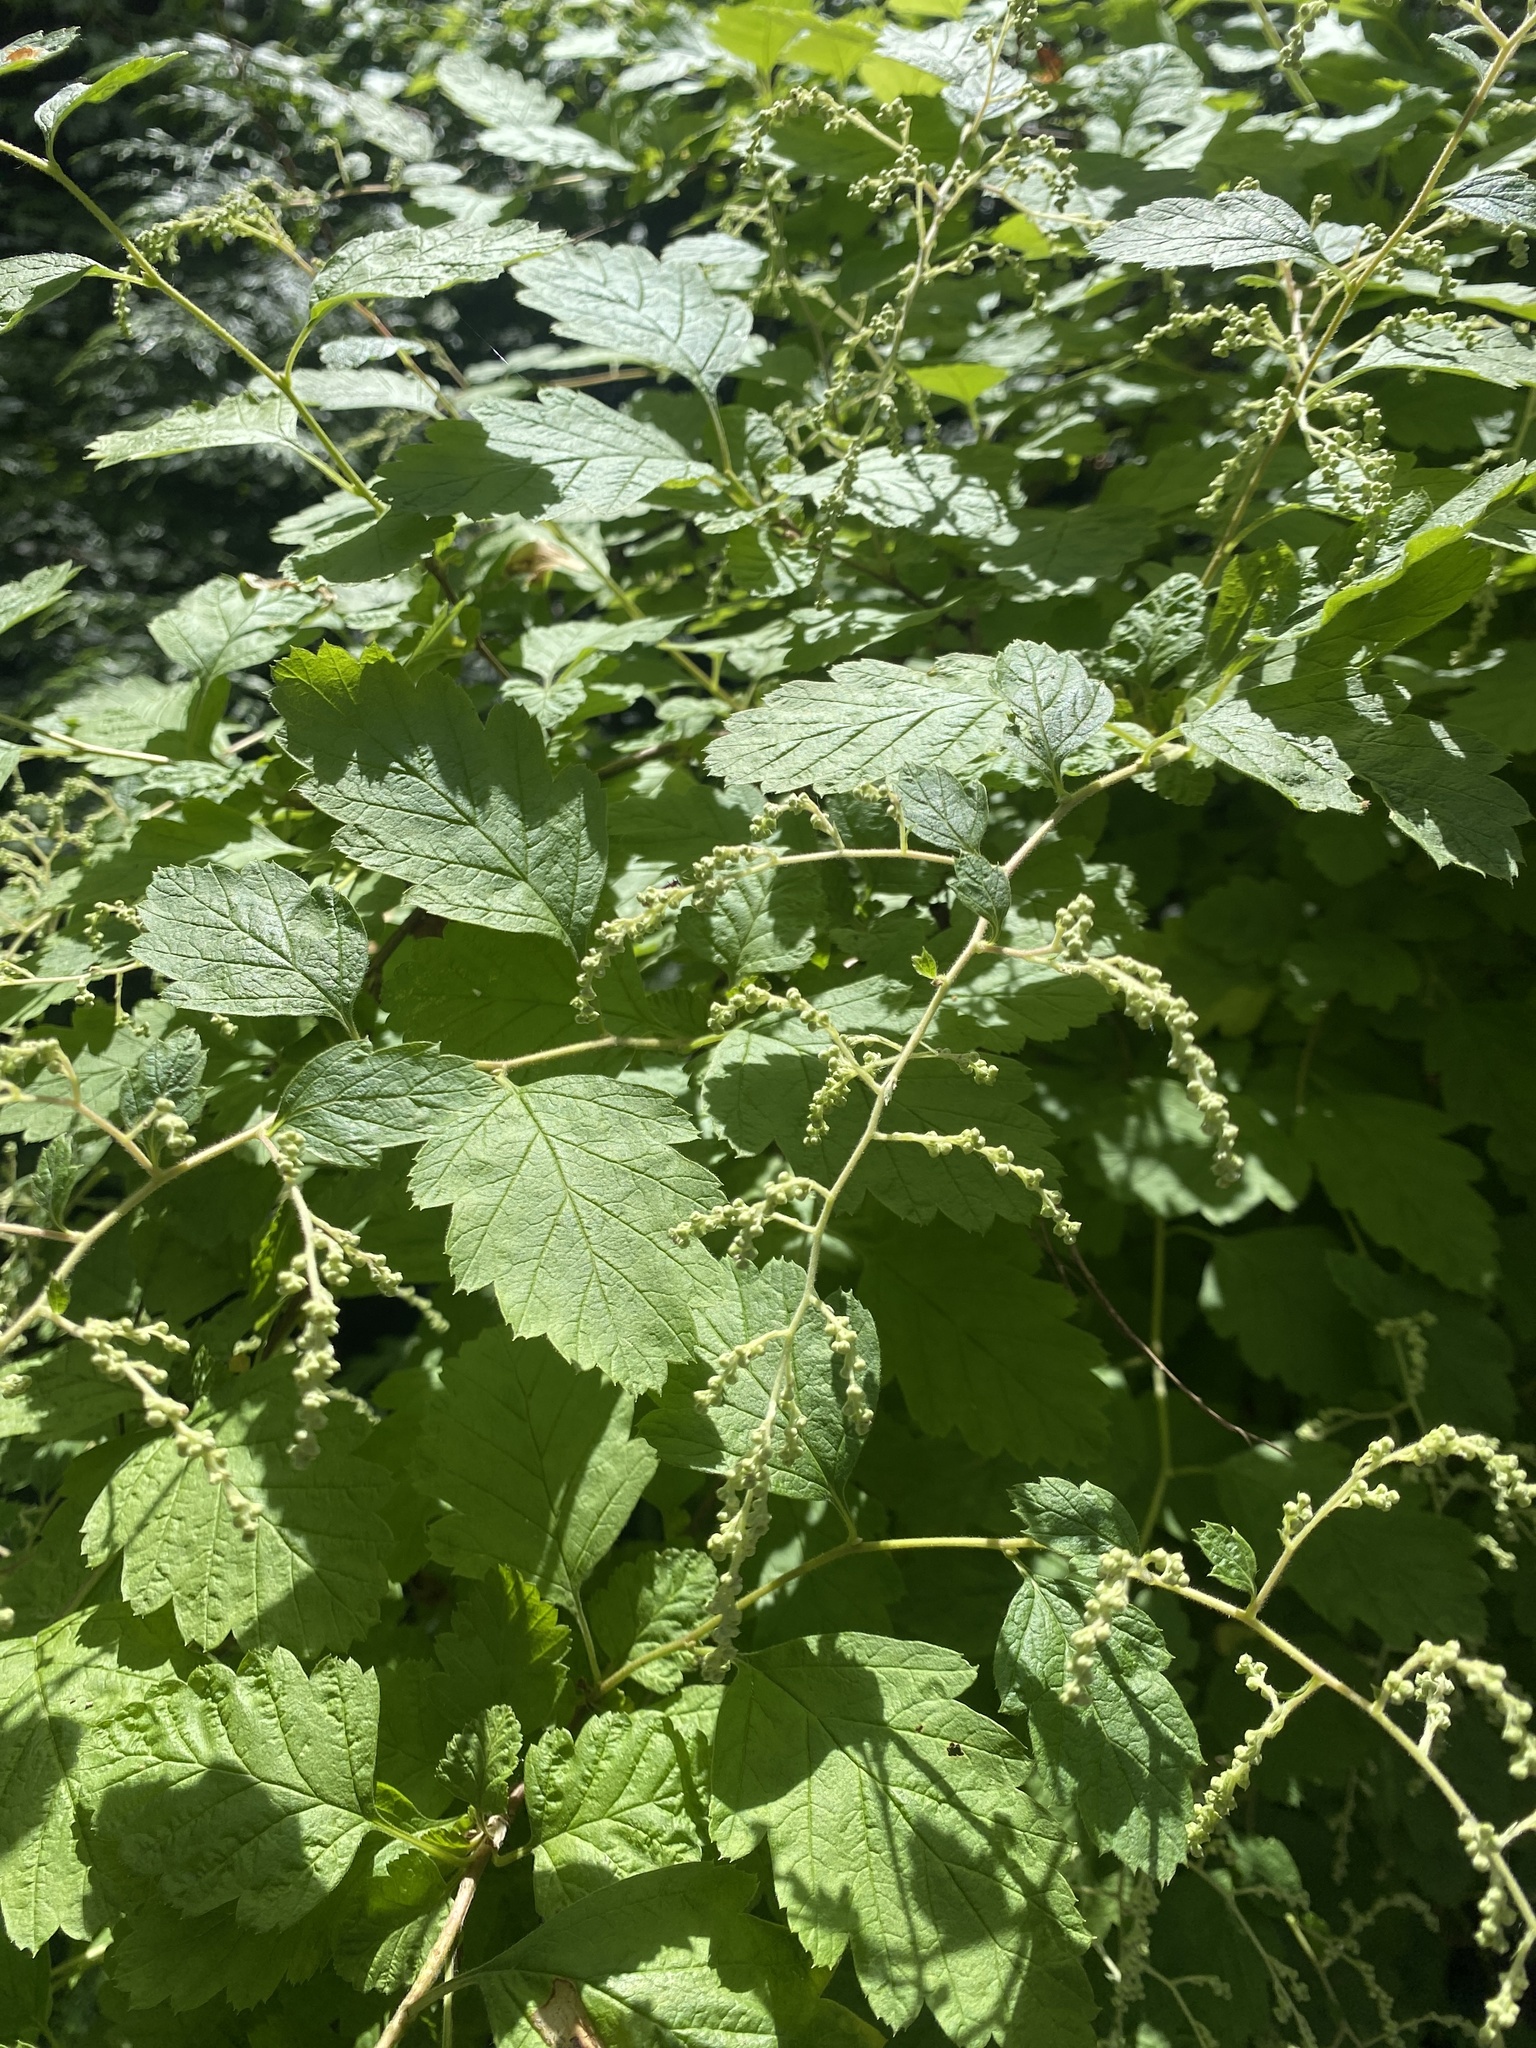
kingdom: Plantae
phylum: Tracheophyta
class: Magnoliopsida
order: Rosales
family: Rosaceae
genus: Holodiscus
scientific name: Holodiscus discolor
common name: Oceanspray
